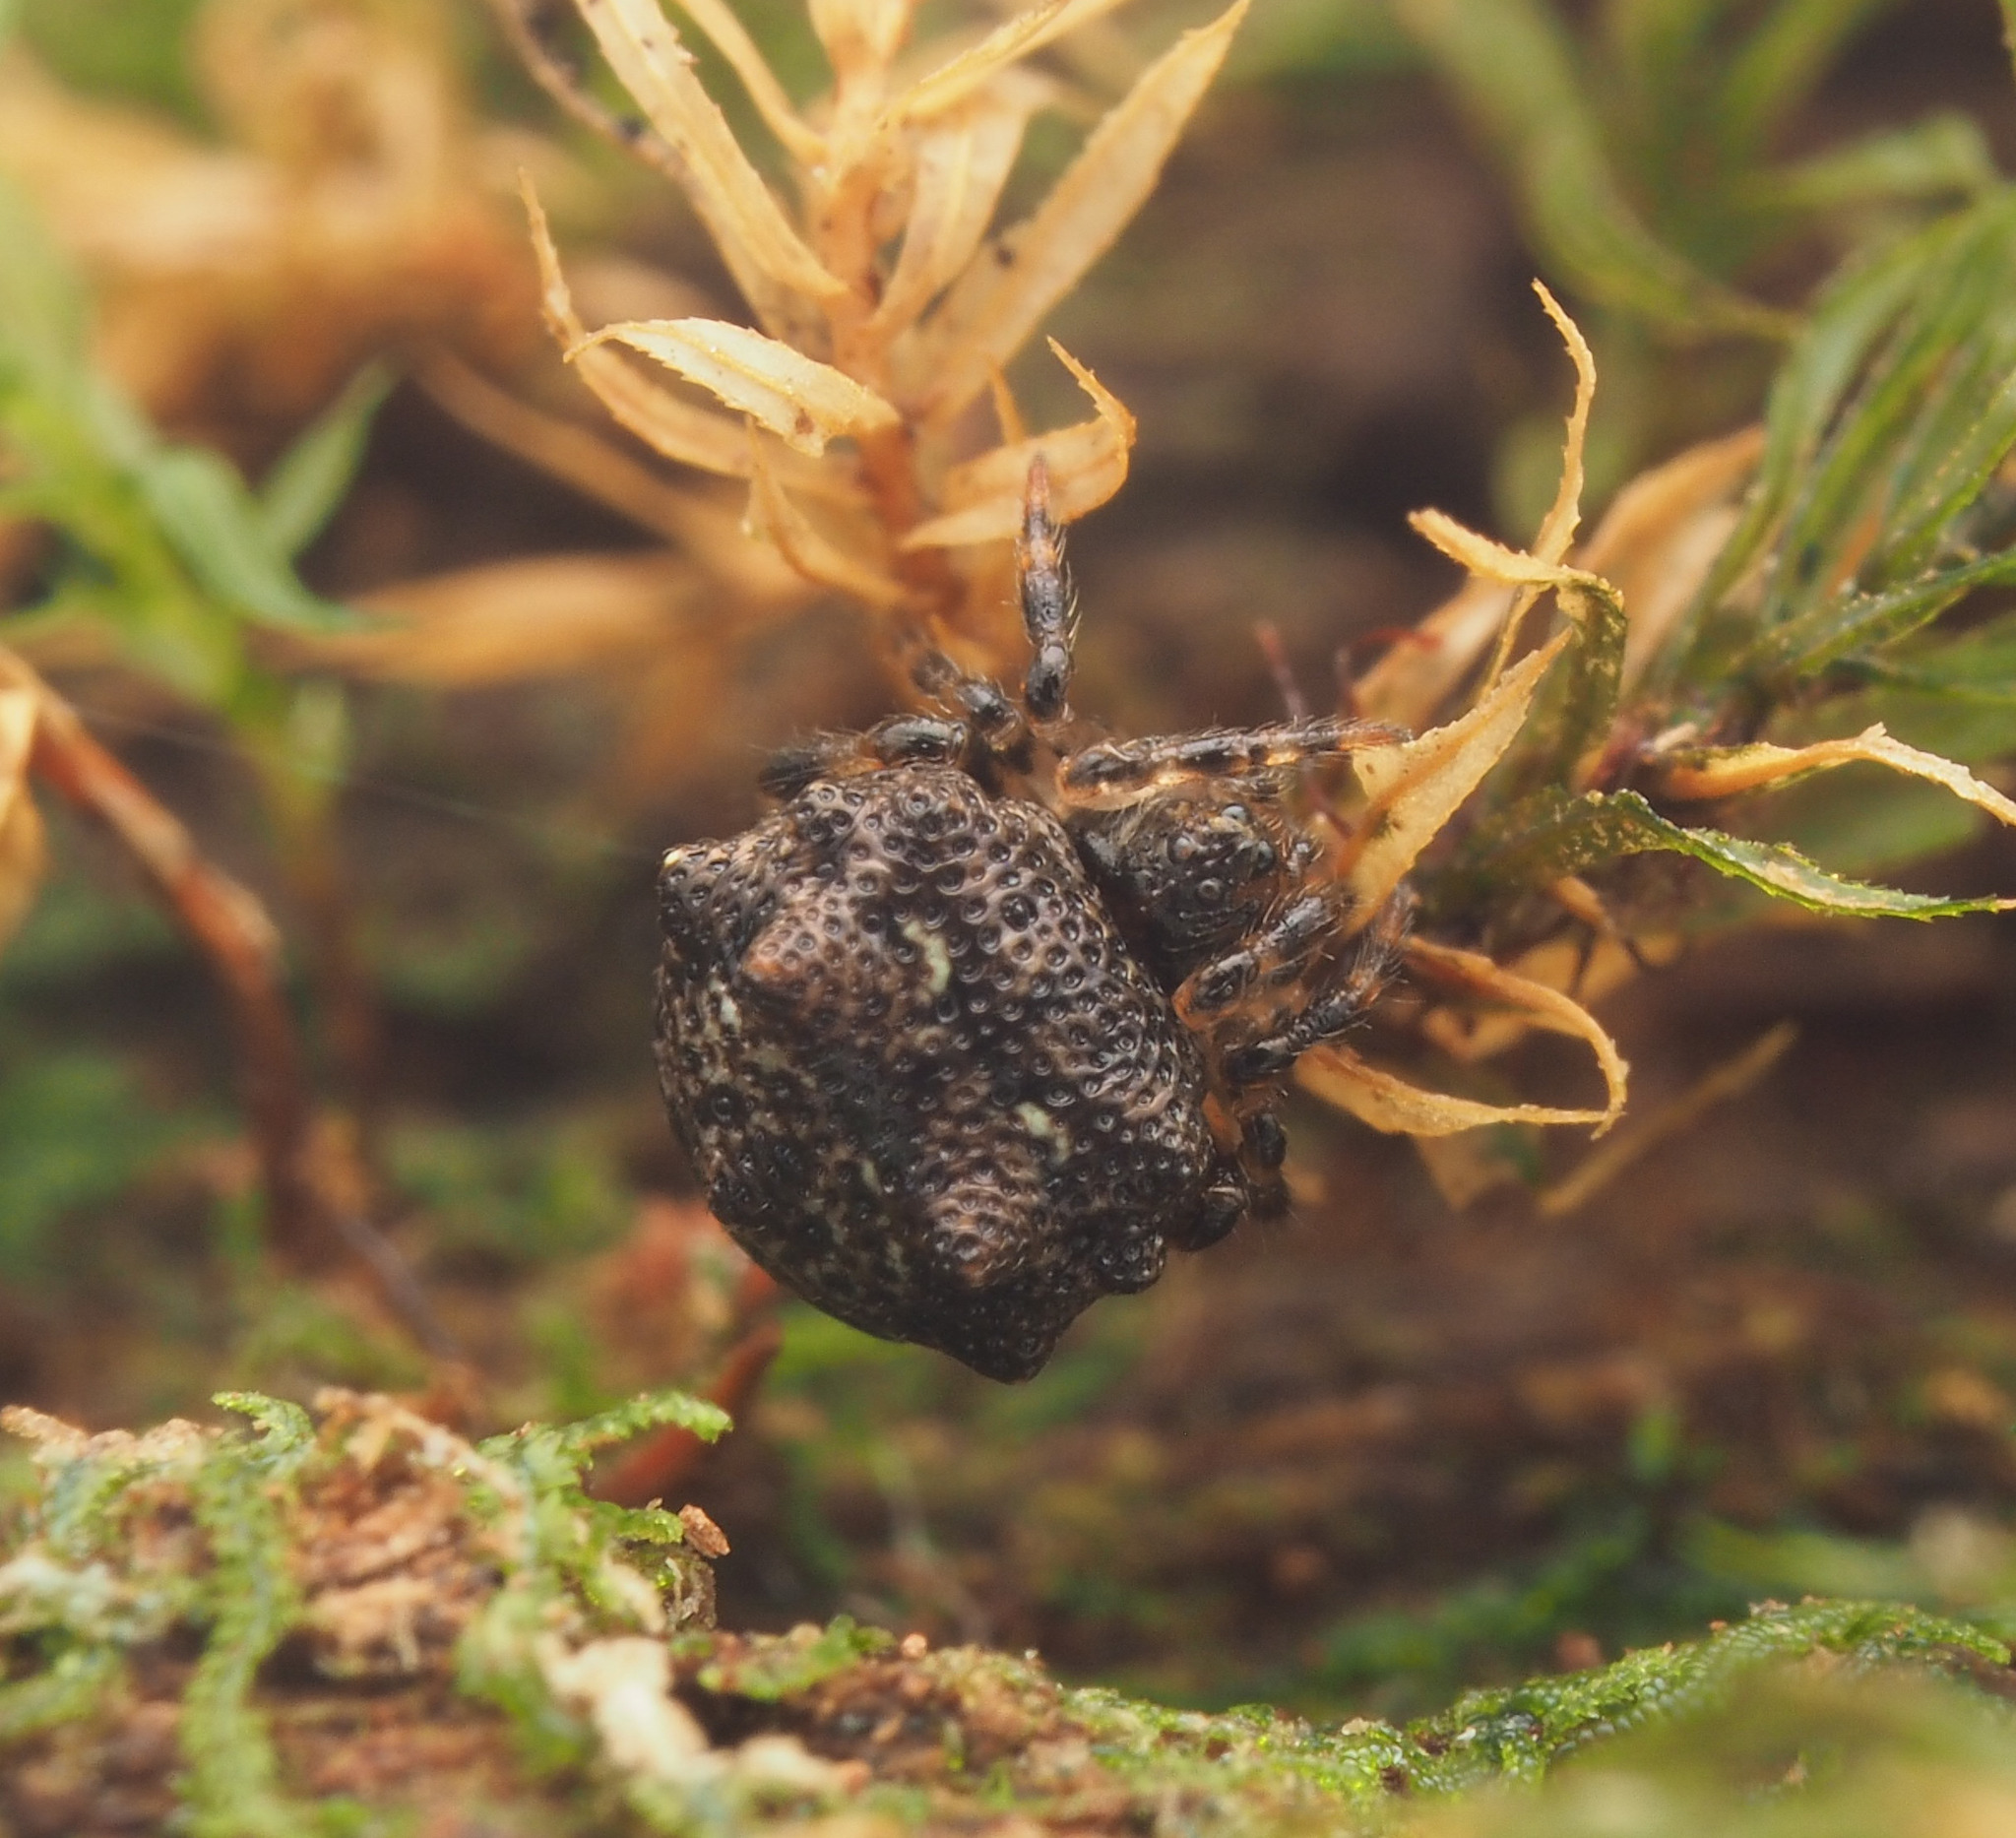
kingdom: Animalia
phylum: Arthropoda
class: Arachnida
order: Araneae
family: Theridiidae
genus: Phoroncidia
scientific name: Phoroncidia trituberculata
